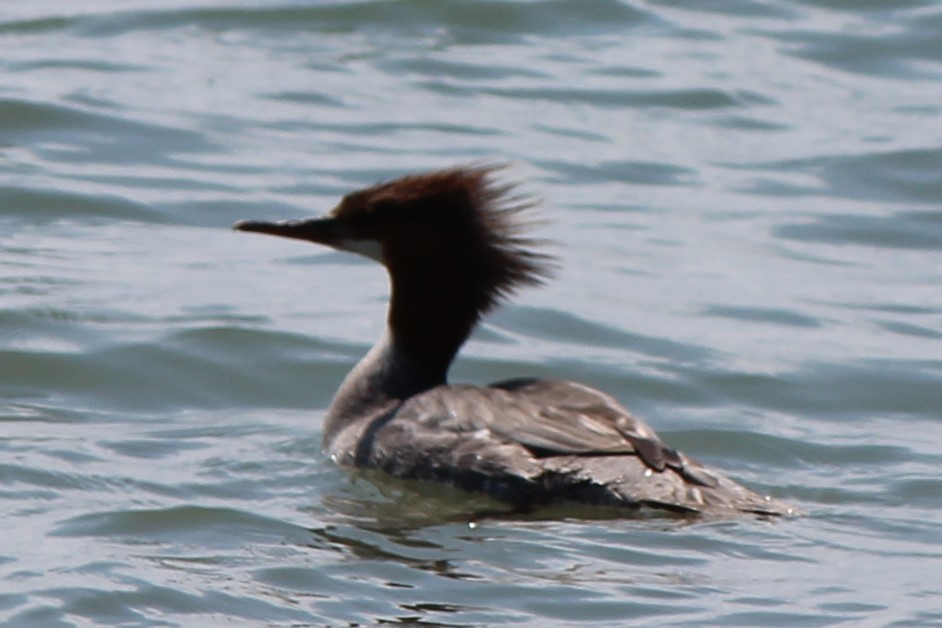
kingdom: Animalia
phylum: Chordata
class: Aves
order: Anseriformes
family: Anatidae
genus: Mergus
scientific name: Mergus merganser
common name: Common merganser
